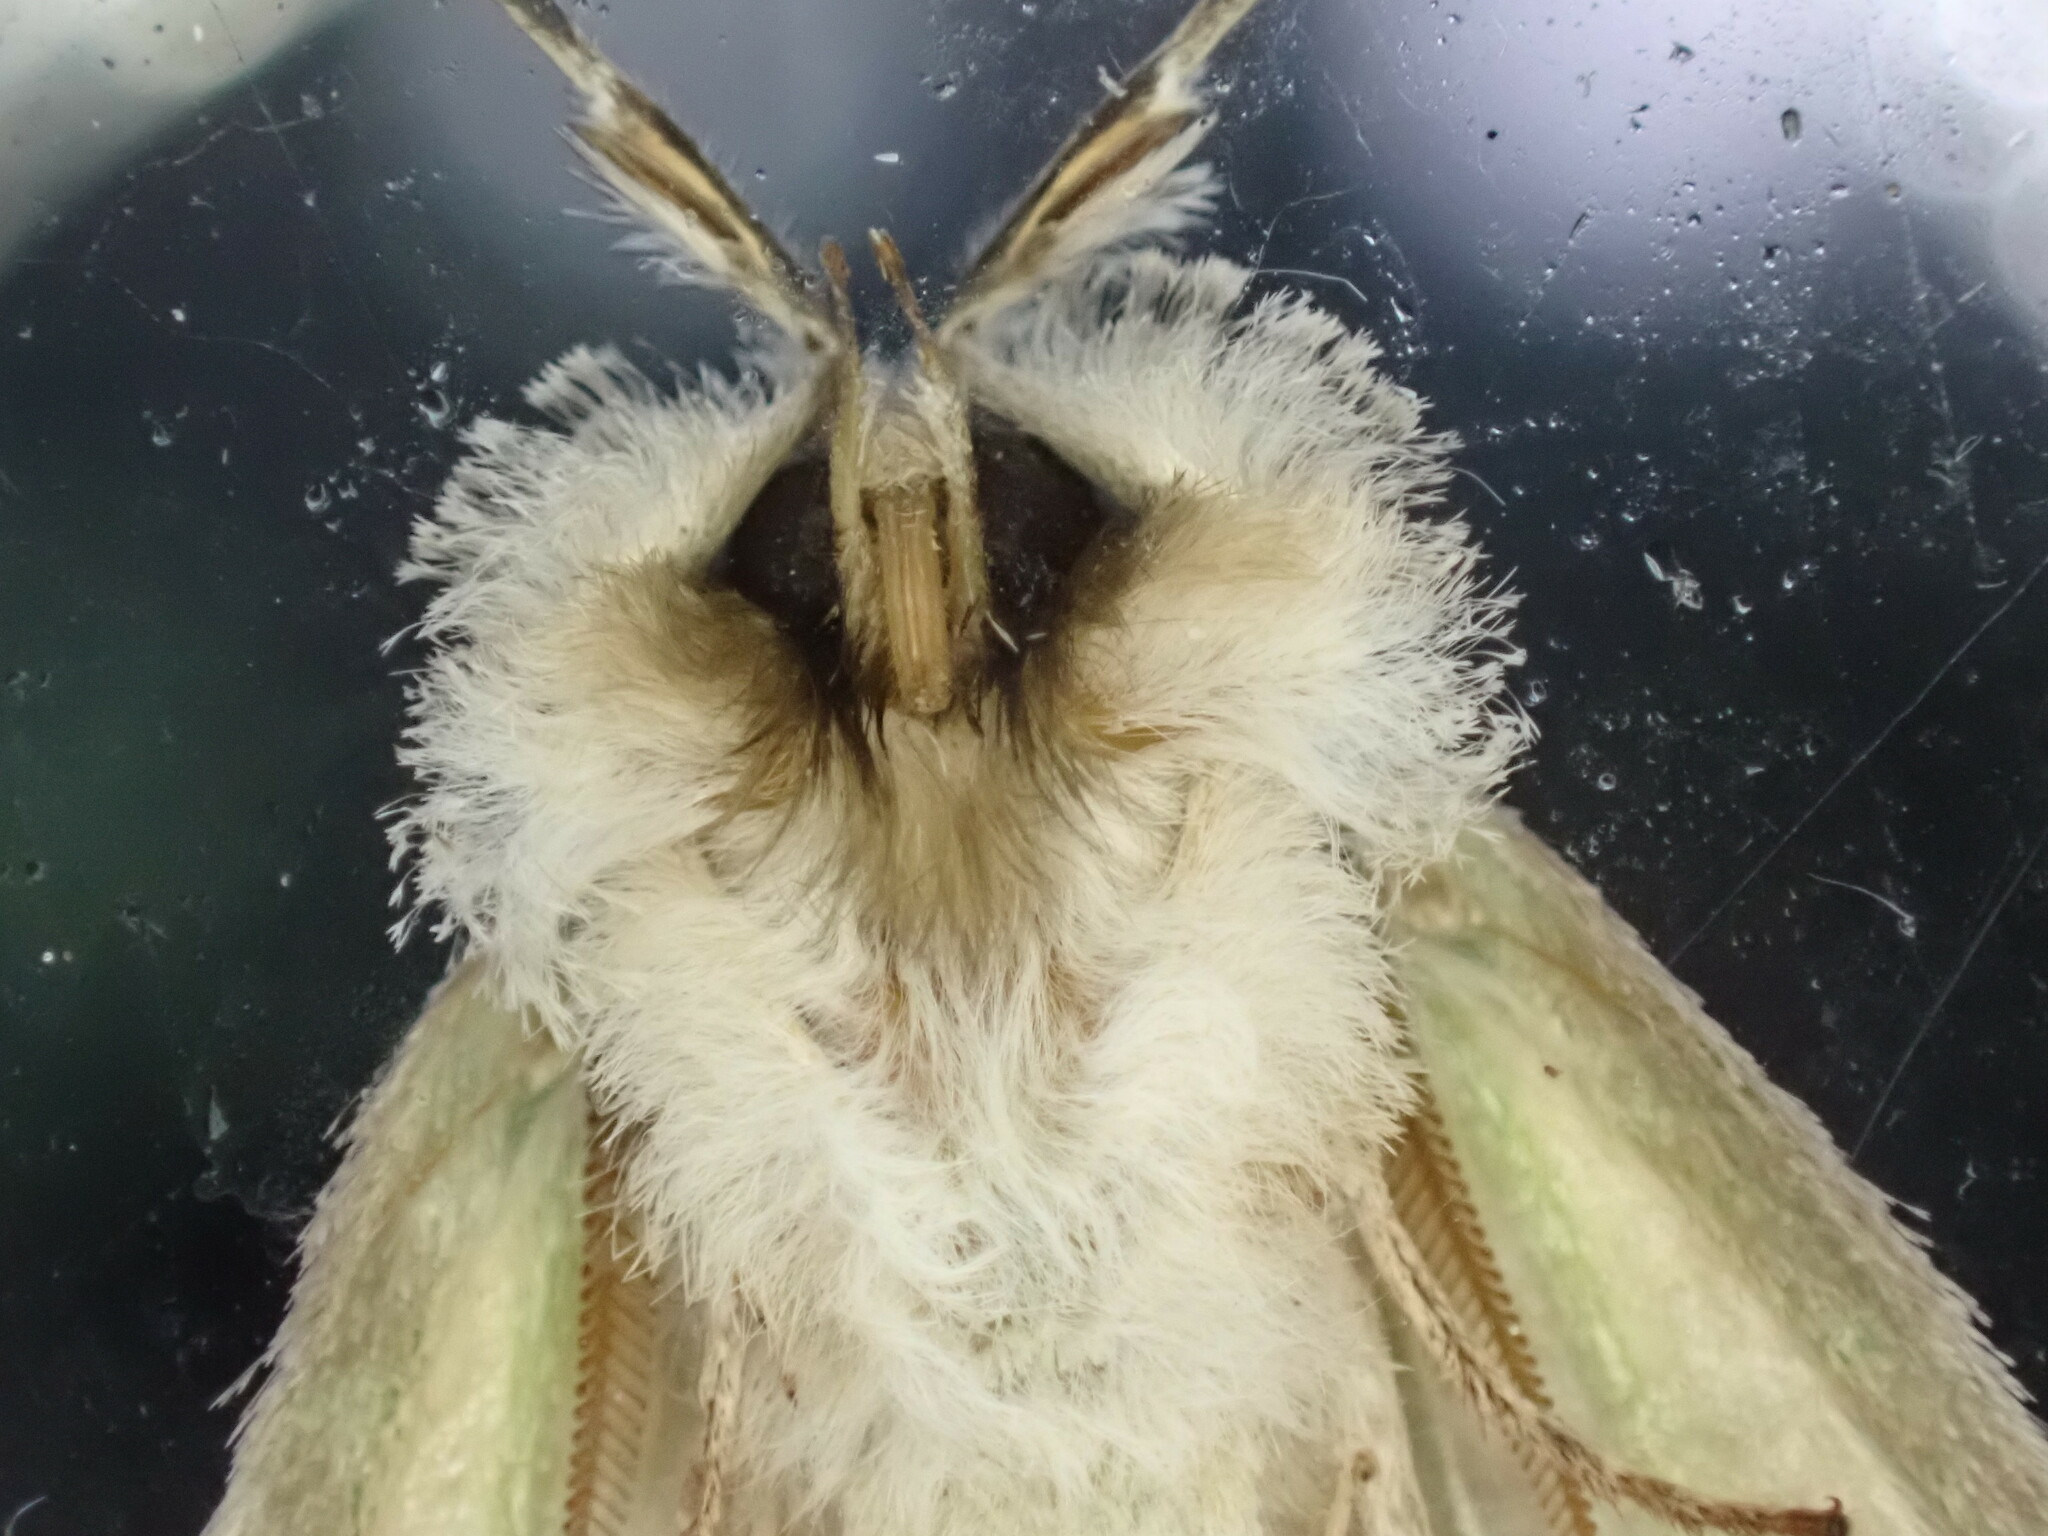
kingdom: Animalia
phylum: Arthropoda
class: Insecta
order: Lepidoptera
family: Geometridae
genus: Declana
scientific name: Declana floccosa
